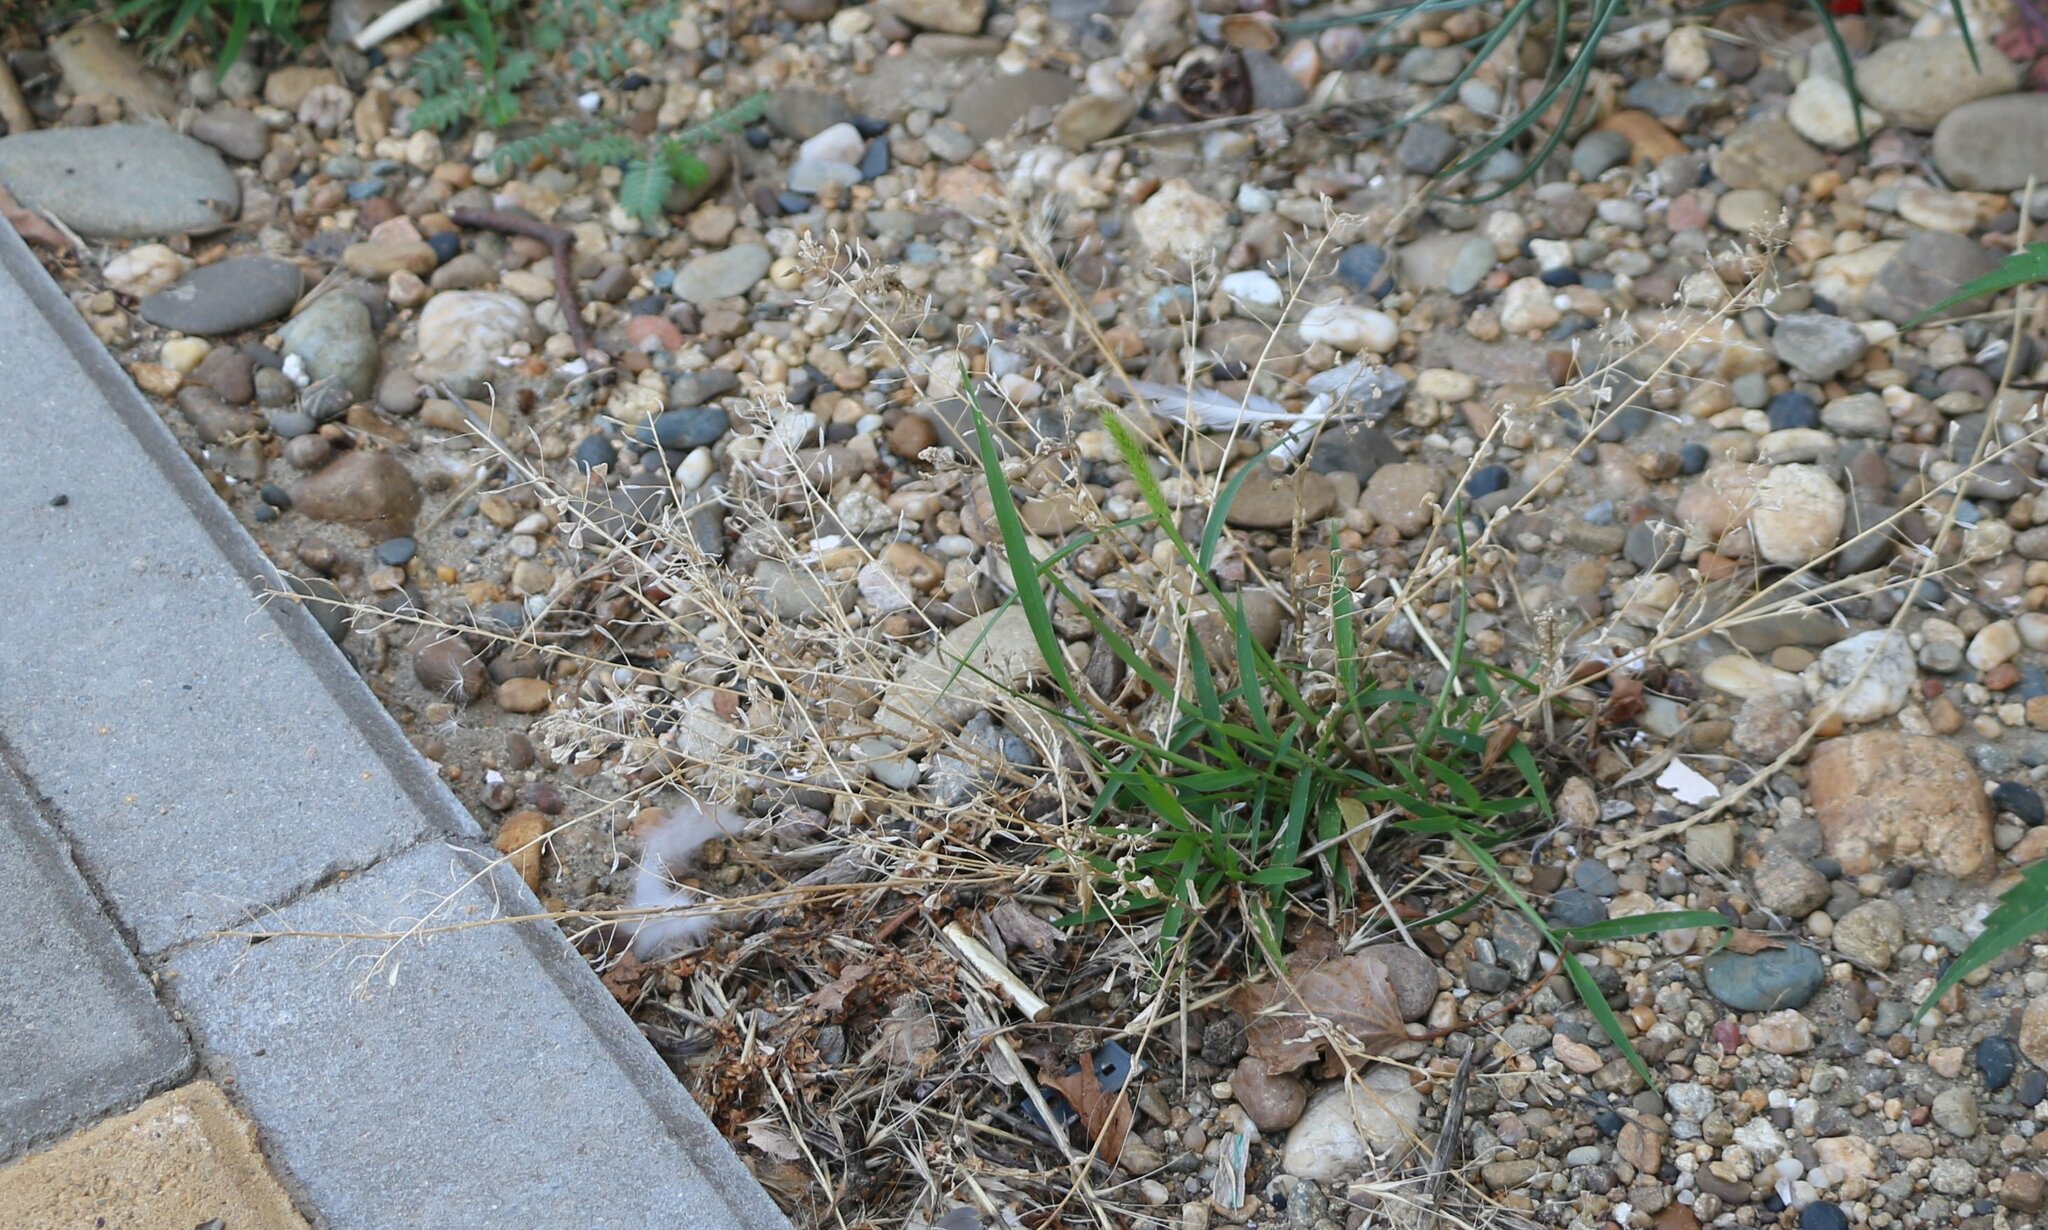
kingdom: Plantae
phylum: Tracheophyta
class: Magnoliopsida
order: Brassicales
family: Brassicaceae
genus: Capsella
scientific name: Capsella bursa-pastoris
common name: Shepherd's purse
